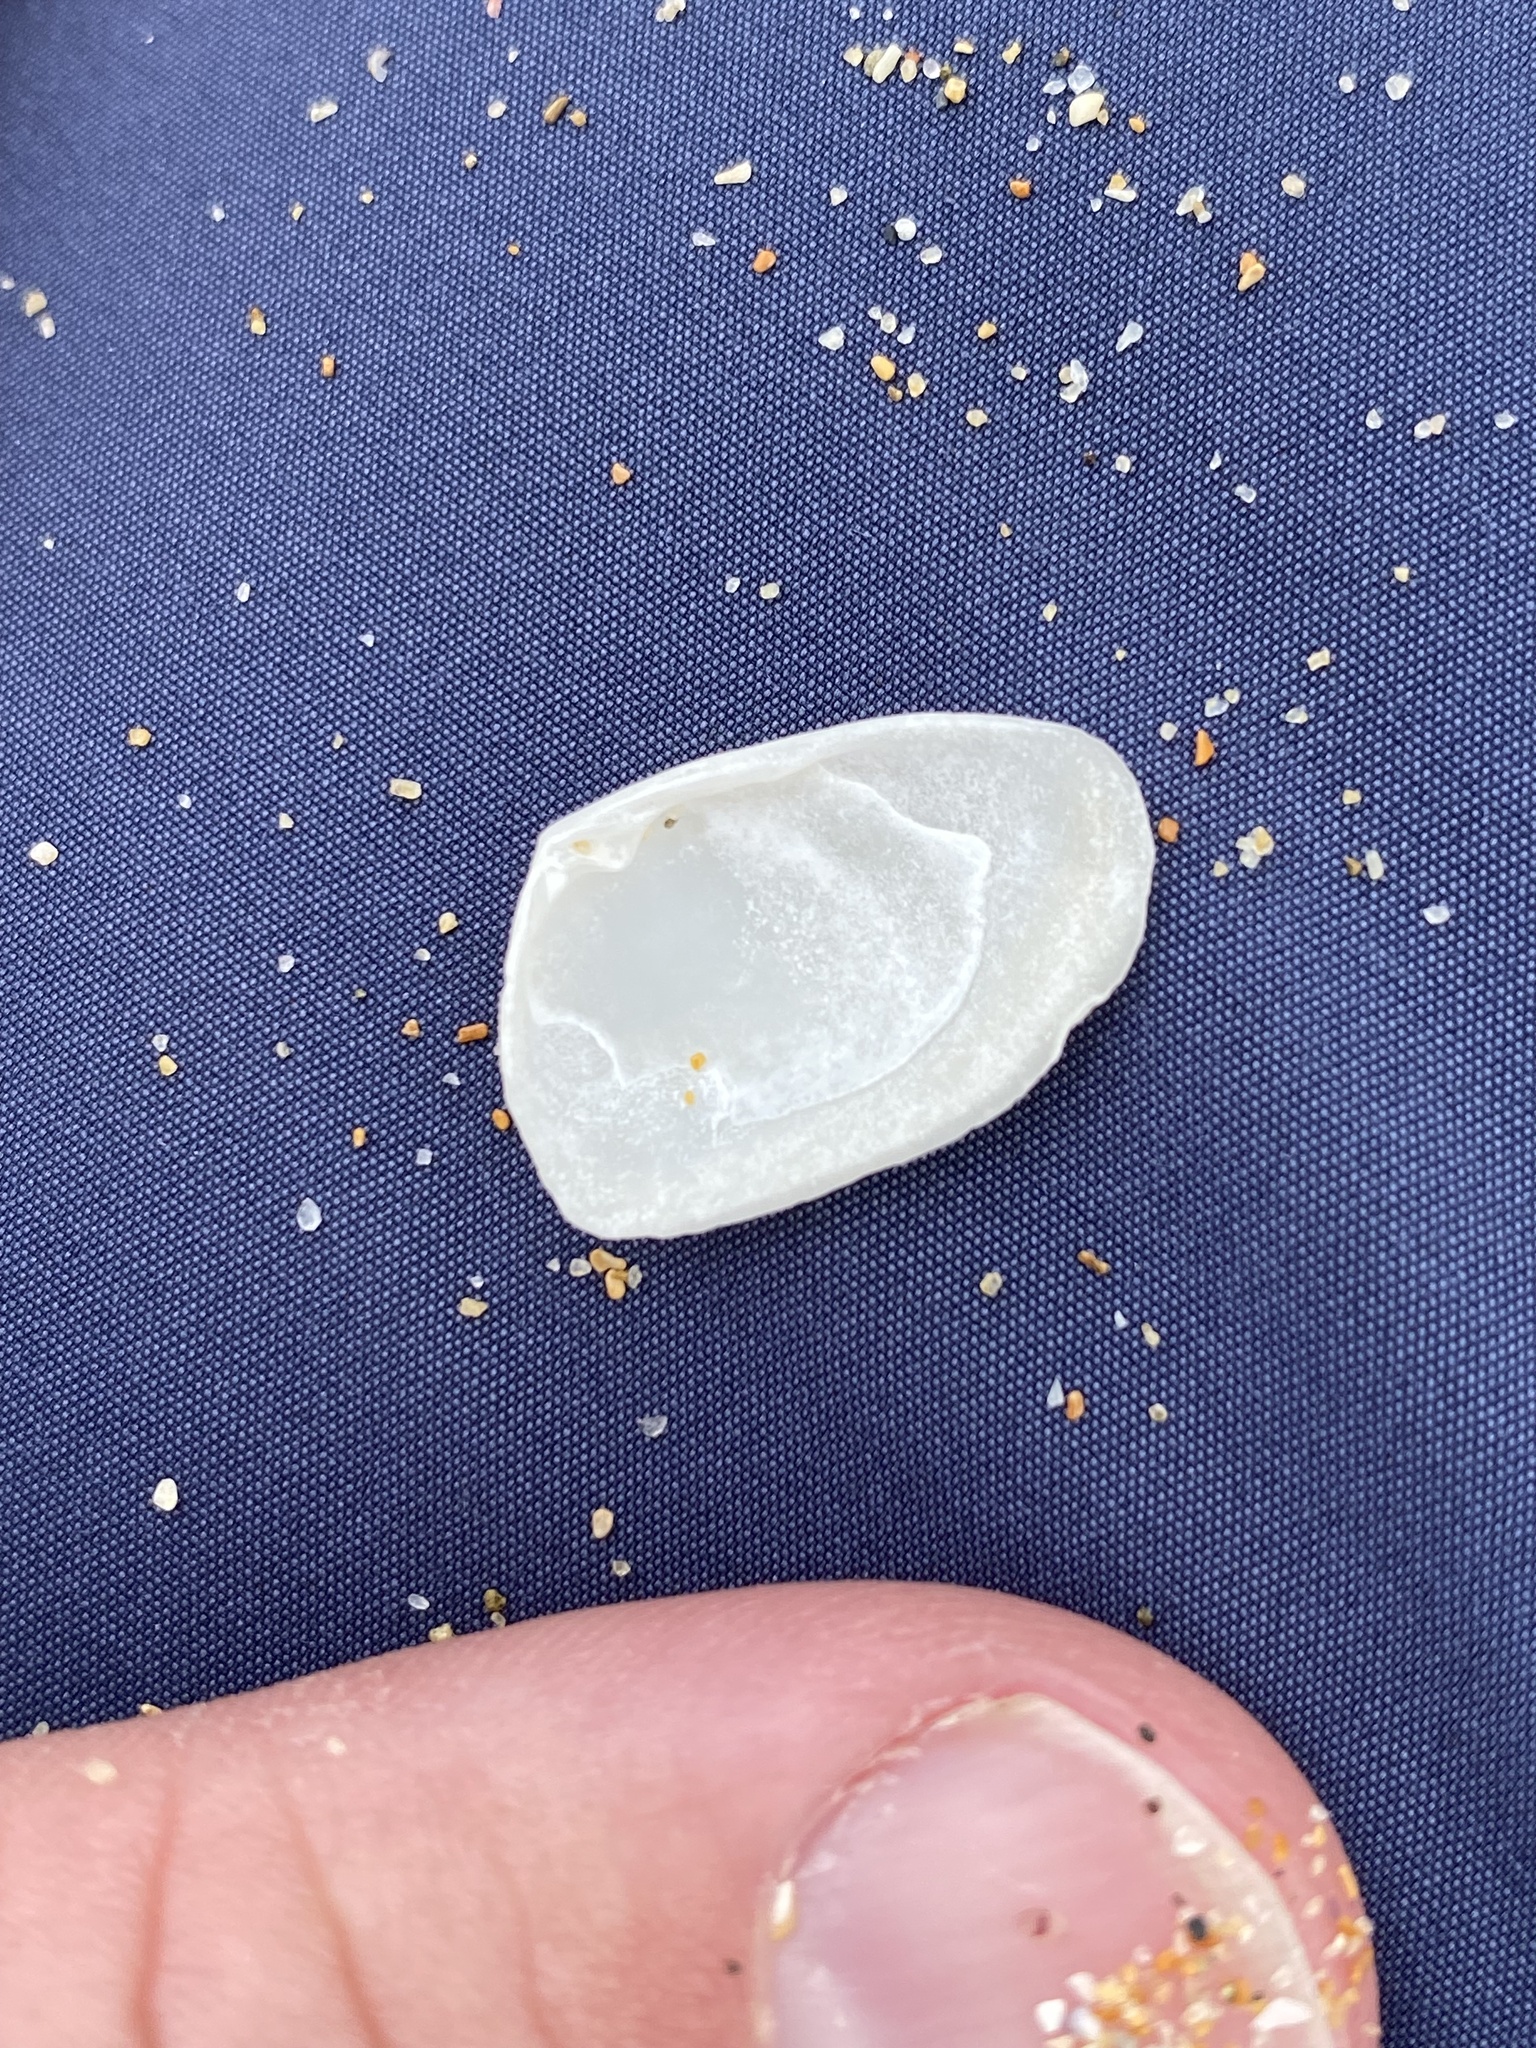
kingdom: Animalia
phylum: Mollusca
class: Bivalvia
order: Venerida
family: Mesodesmatidae
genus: Paphies
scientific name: Paphies angusta
